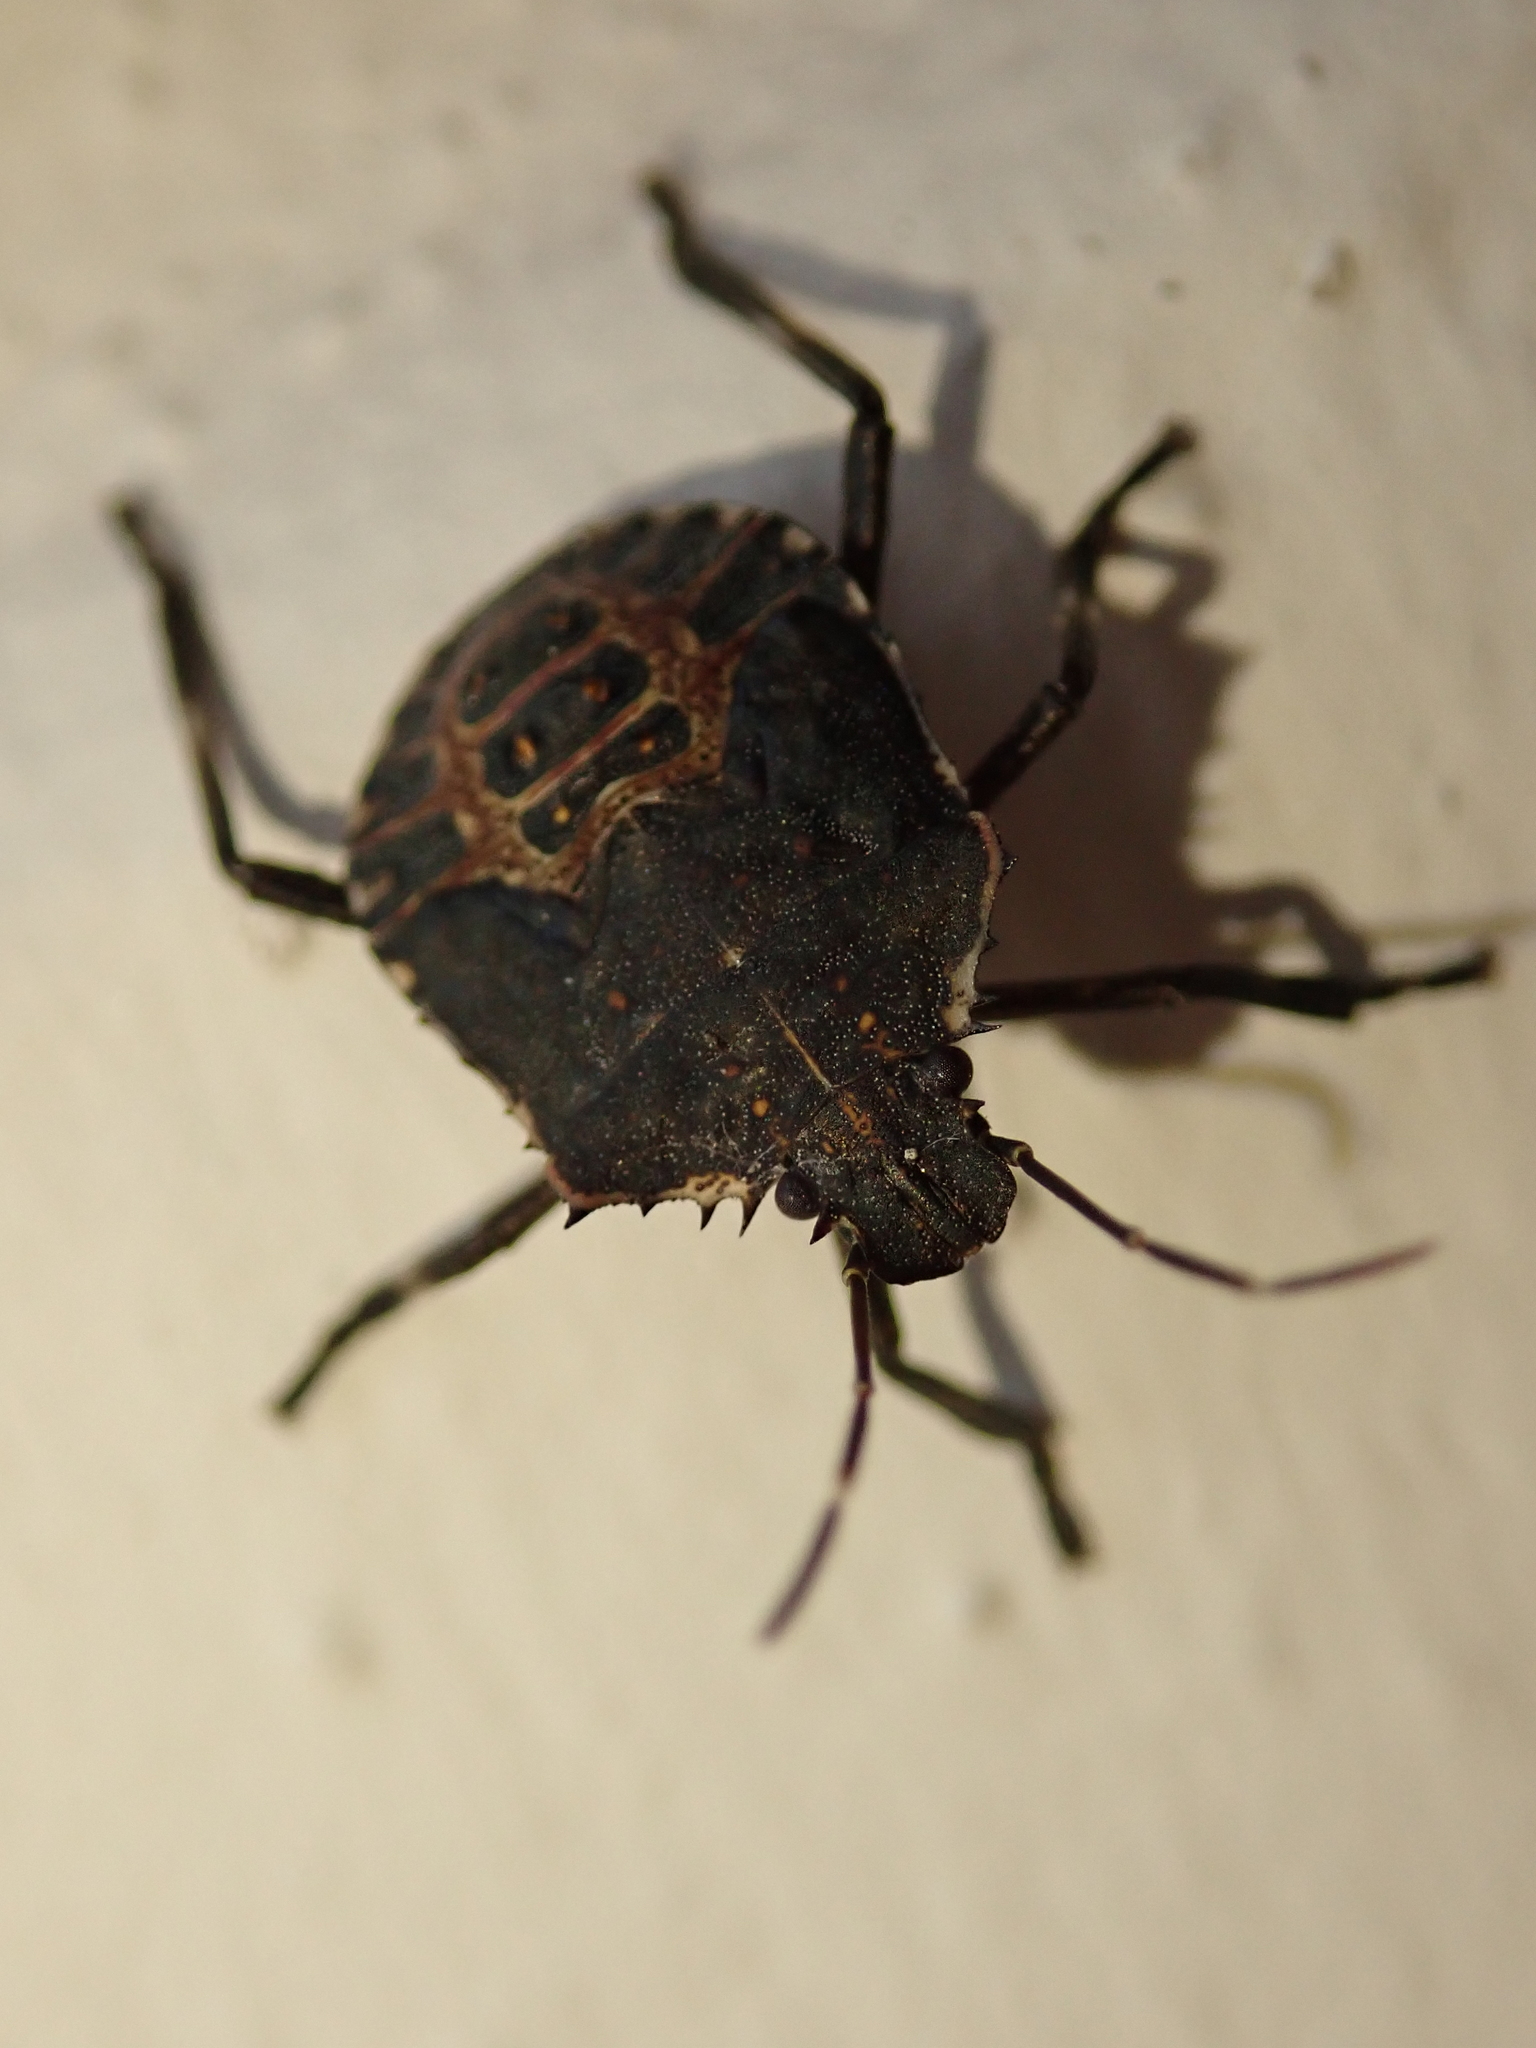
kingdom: Animalia
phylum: Arthropoda
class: Insecta
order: Hemiptera
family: Pentatomidae
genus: Halyomorpha
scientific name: Halyomorpha halys
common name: Brown marmorated stink bug
